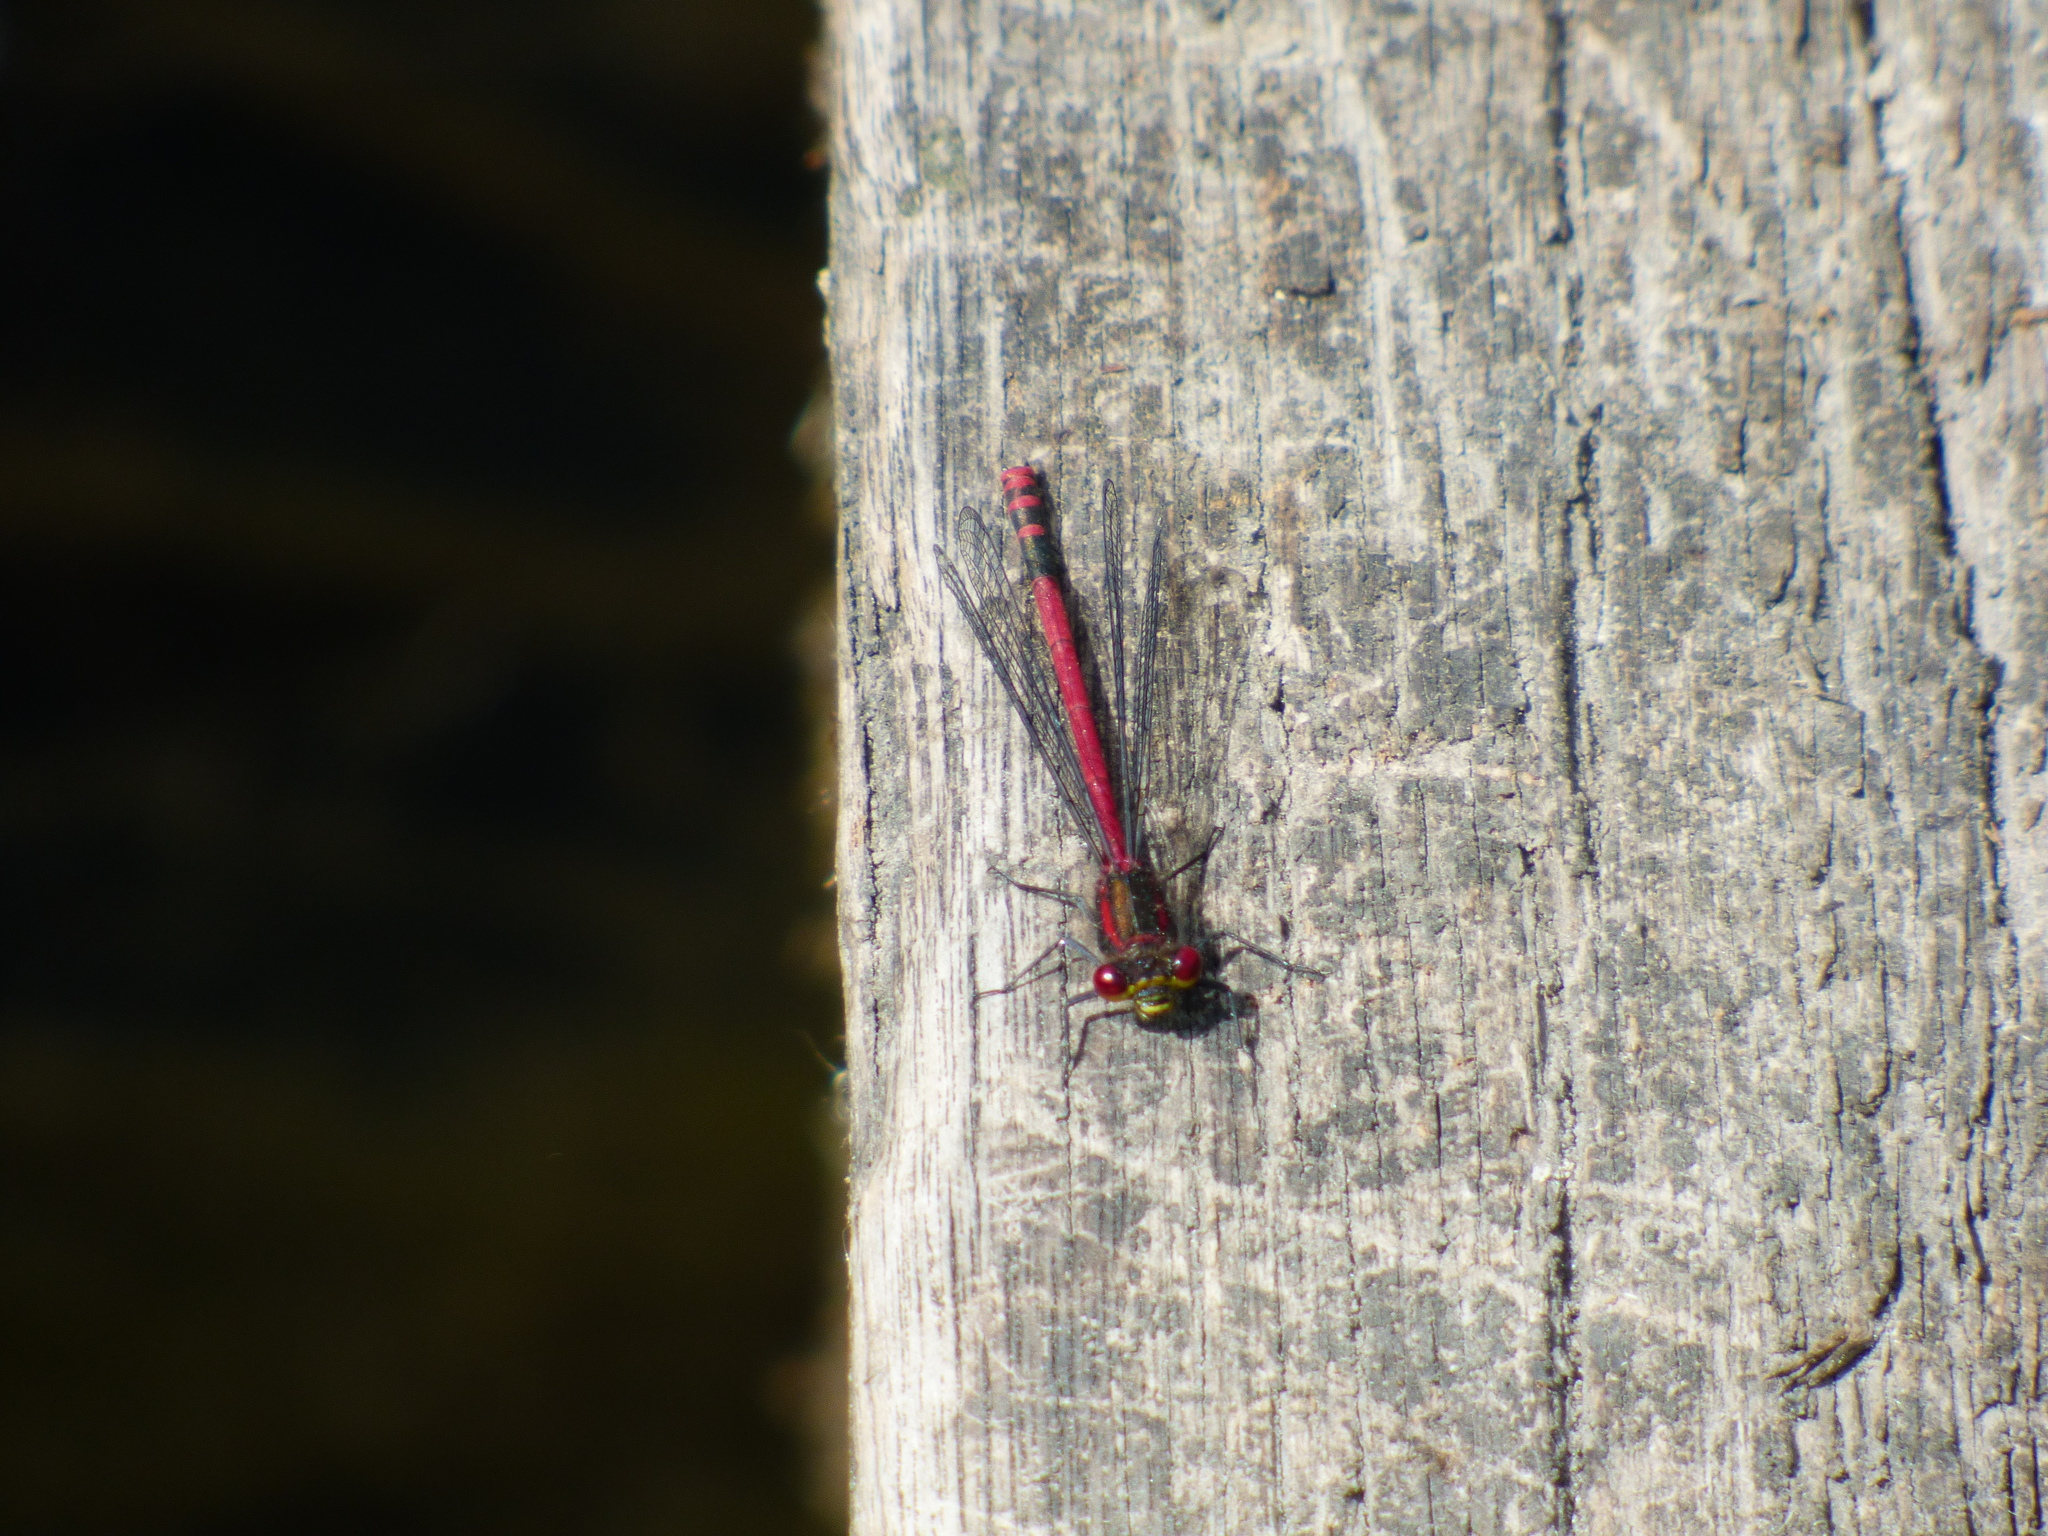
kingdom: Animalia
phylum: Arthropoda
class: Insecta
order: Odonata
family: Coenagrionidae
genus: Pyrrhosoma
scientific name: Pyrrhosoma nymphula
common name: Large red damsel
